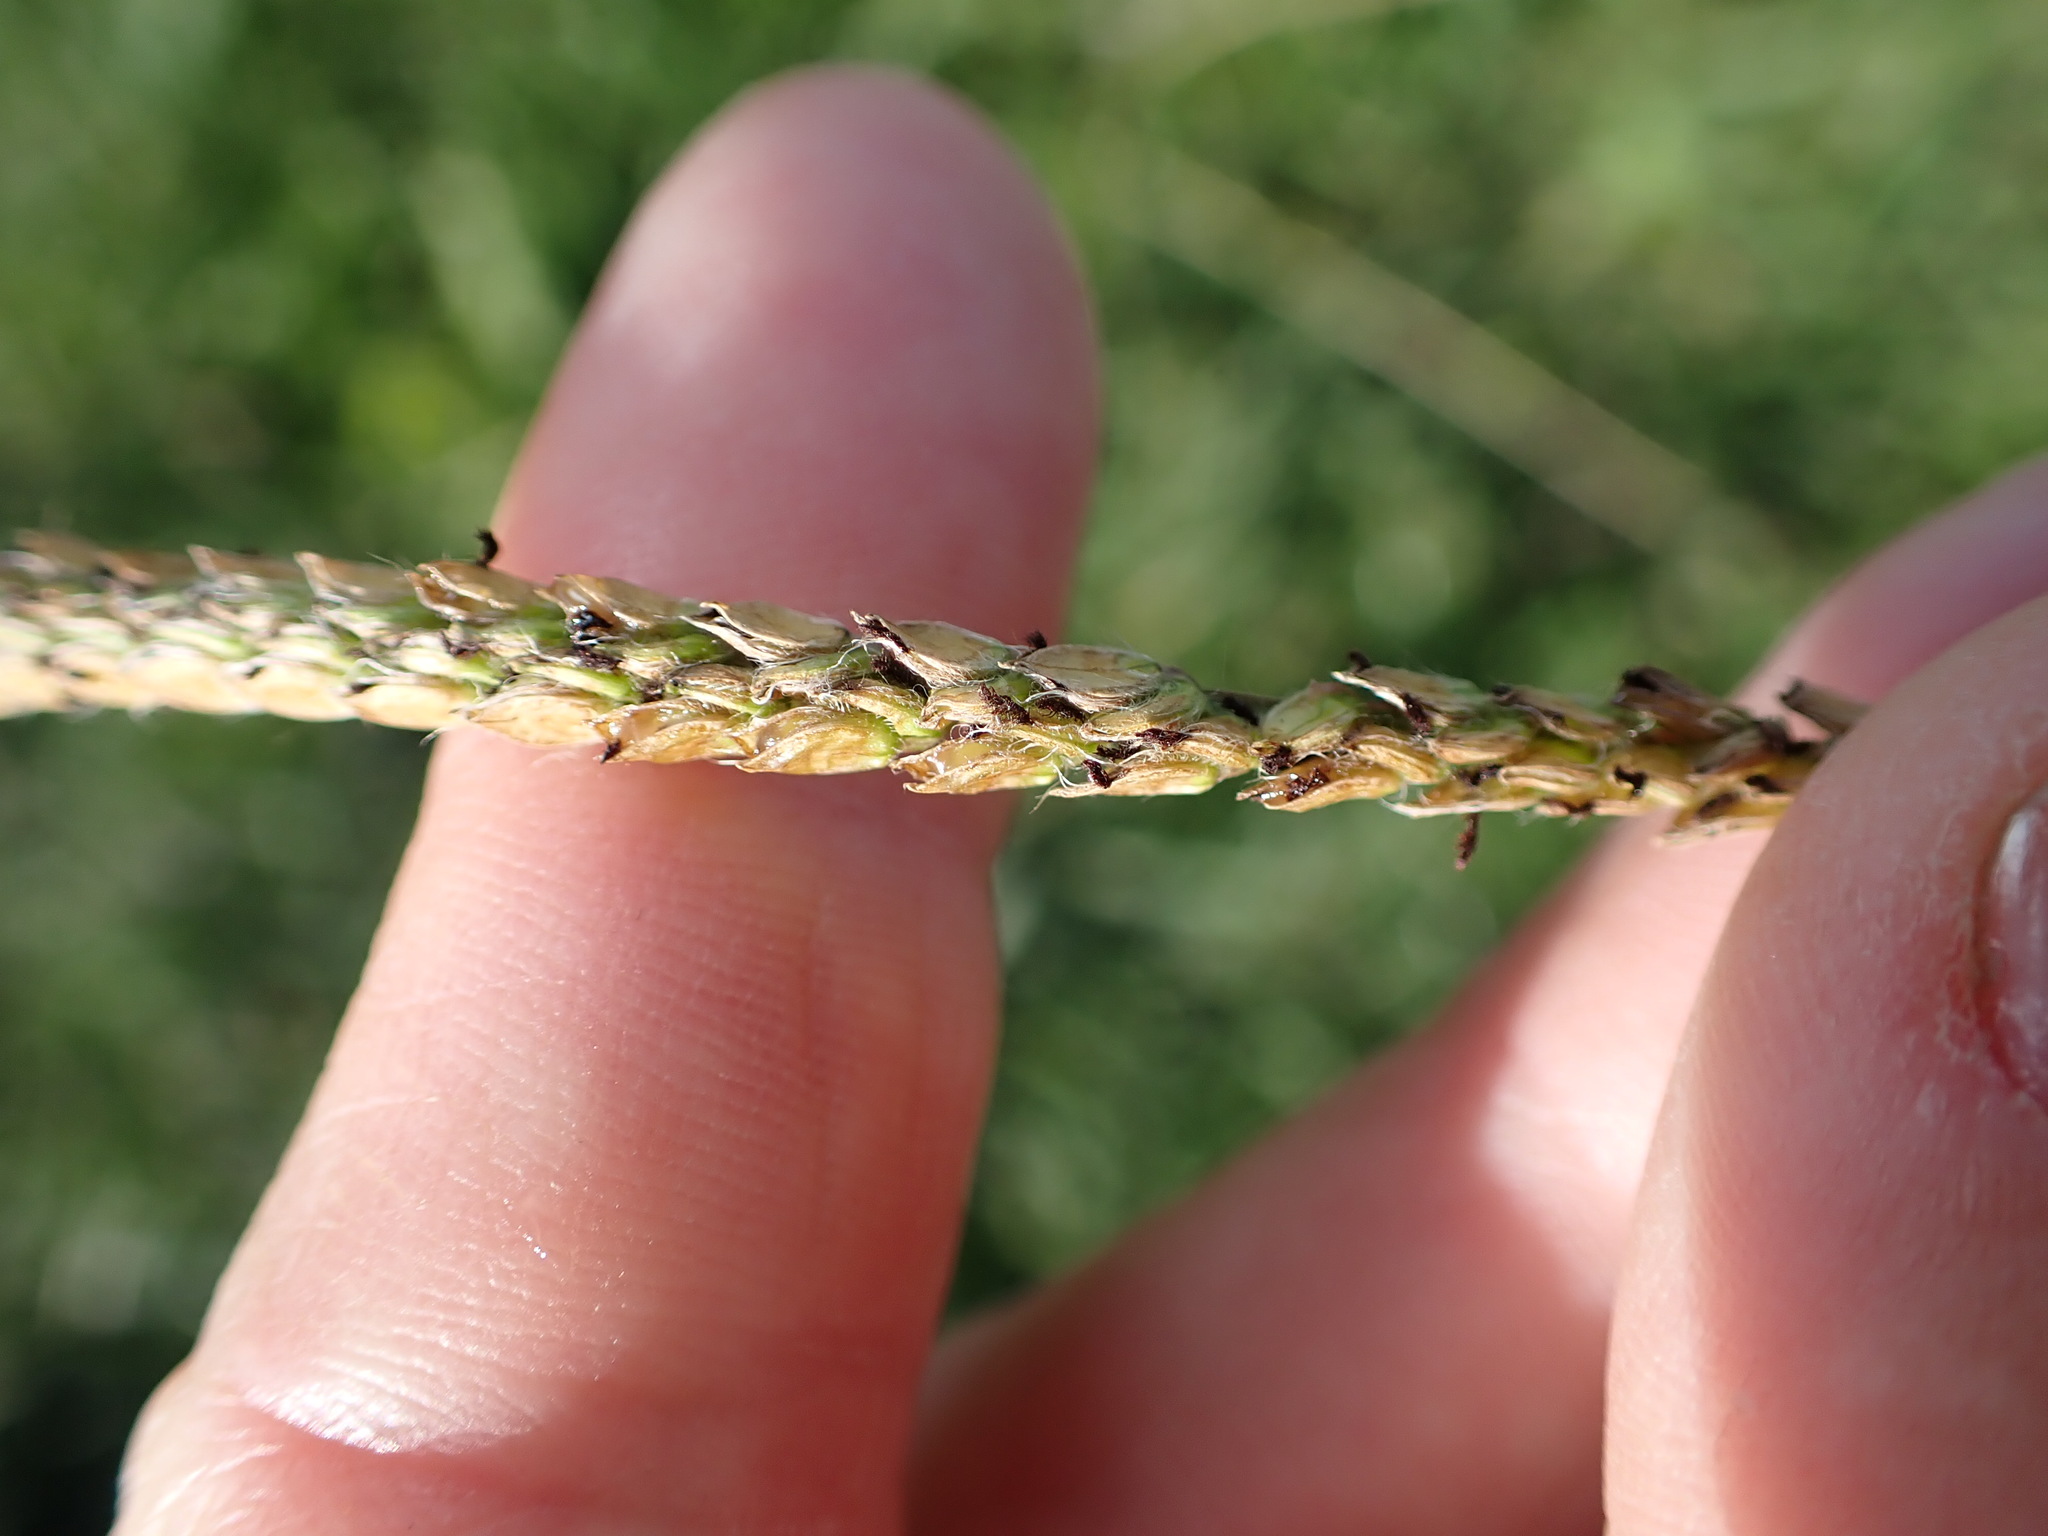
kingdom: Plantae
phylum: Tracheophyta
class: Liliopsida
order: Poales
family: Poaceae
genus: Paspalum
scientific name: Paspalum dilatatum
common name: Dallisgrass
